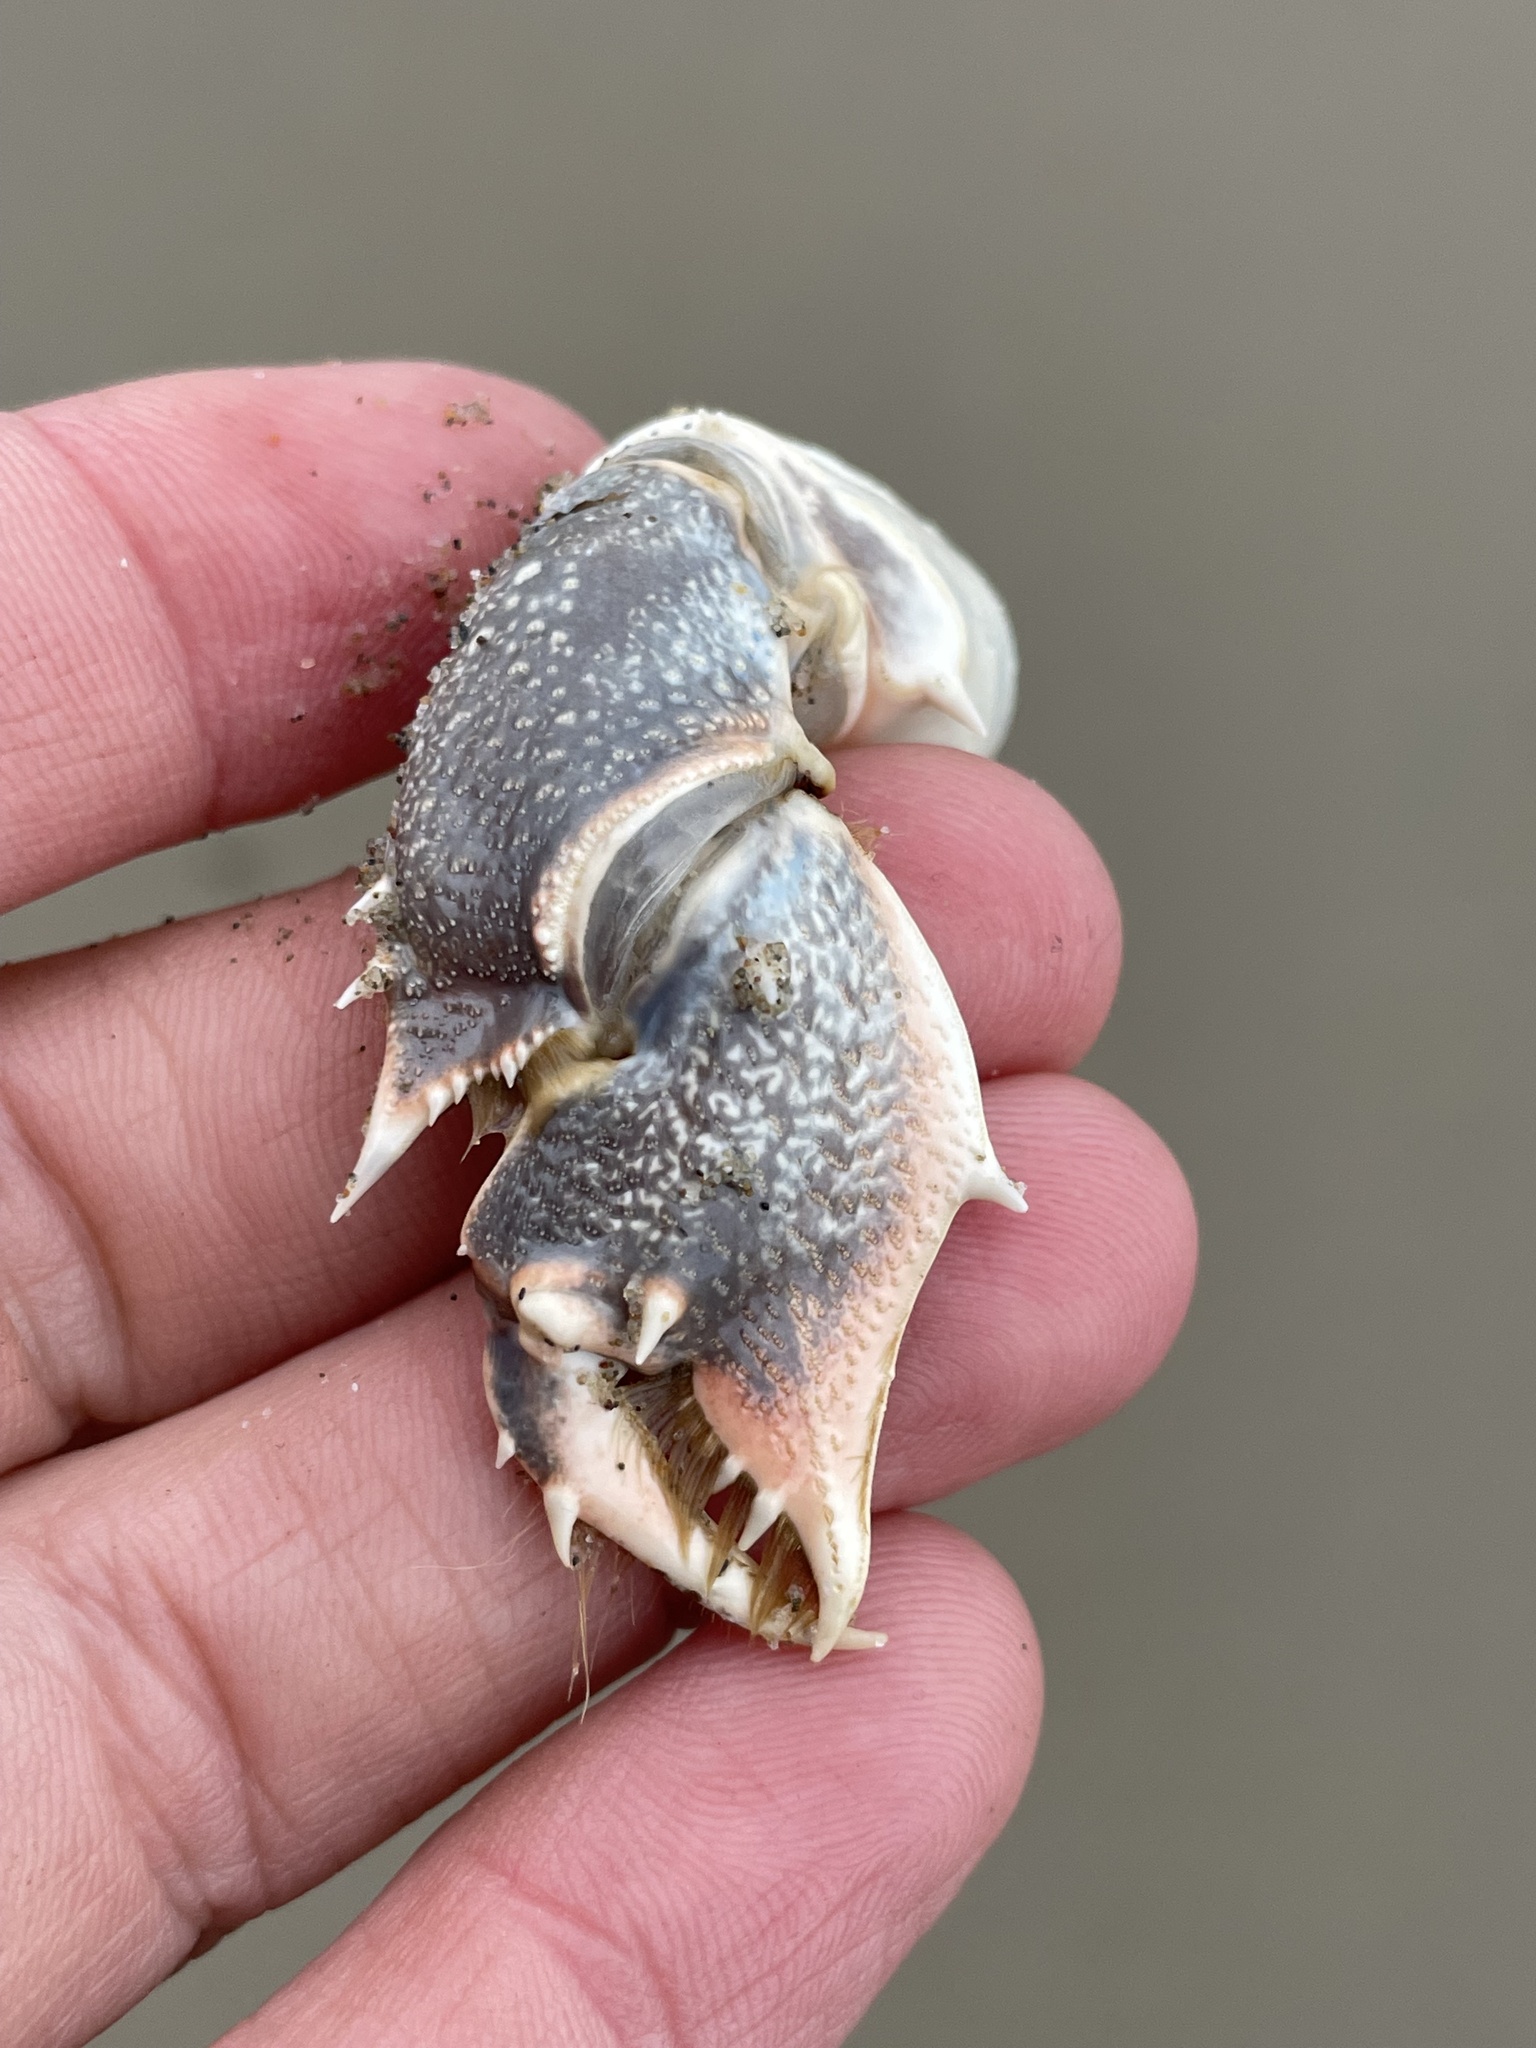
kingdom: Animalia
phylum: Arthropoda
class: Malacostraca
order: Decapoda
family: Blepharipodidae
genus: Blepharipoda
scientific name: Blepharipoda occidentalis
